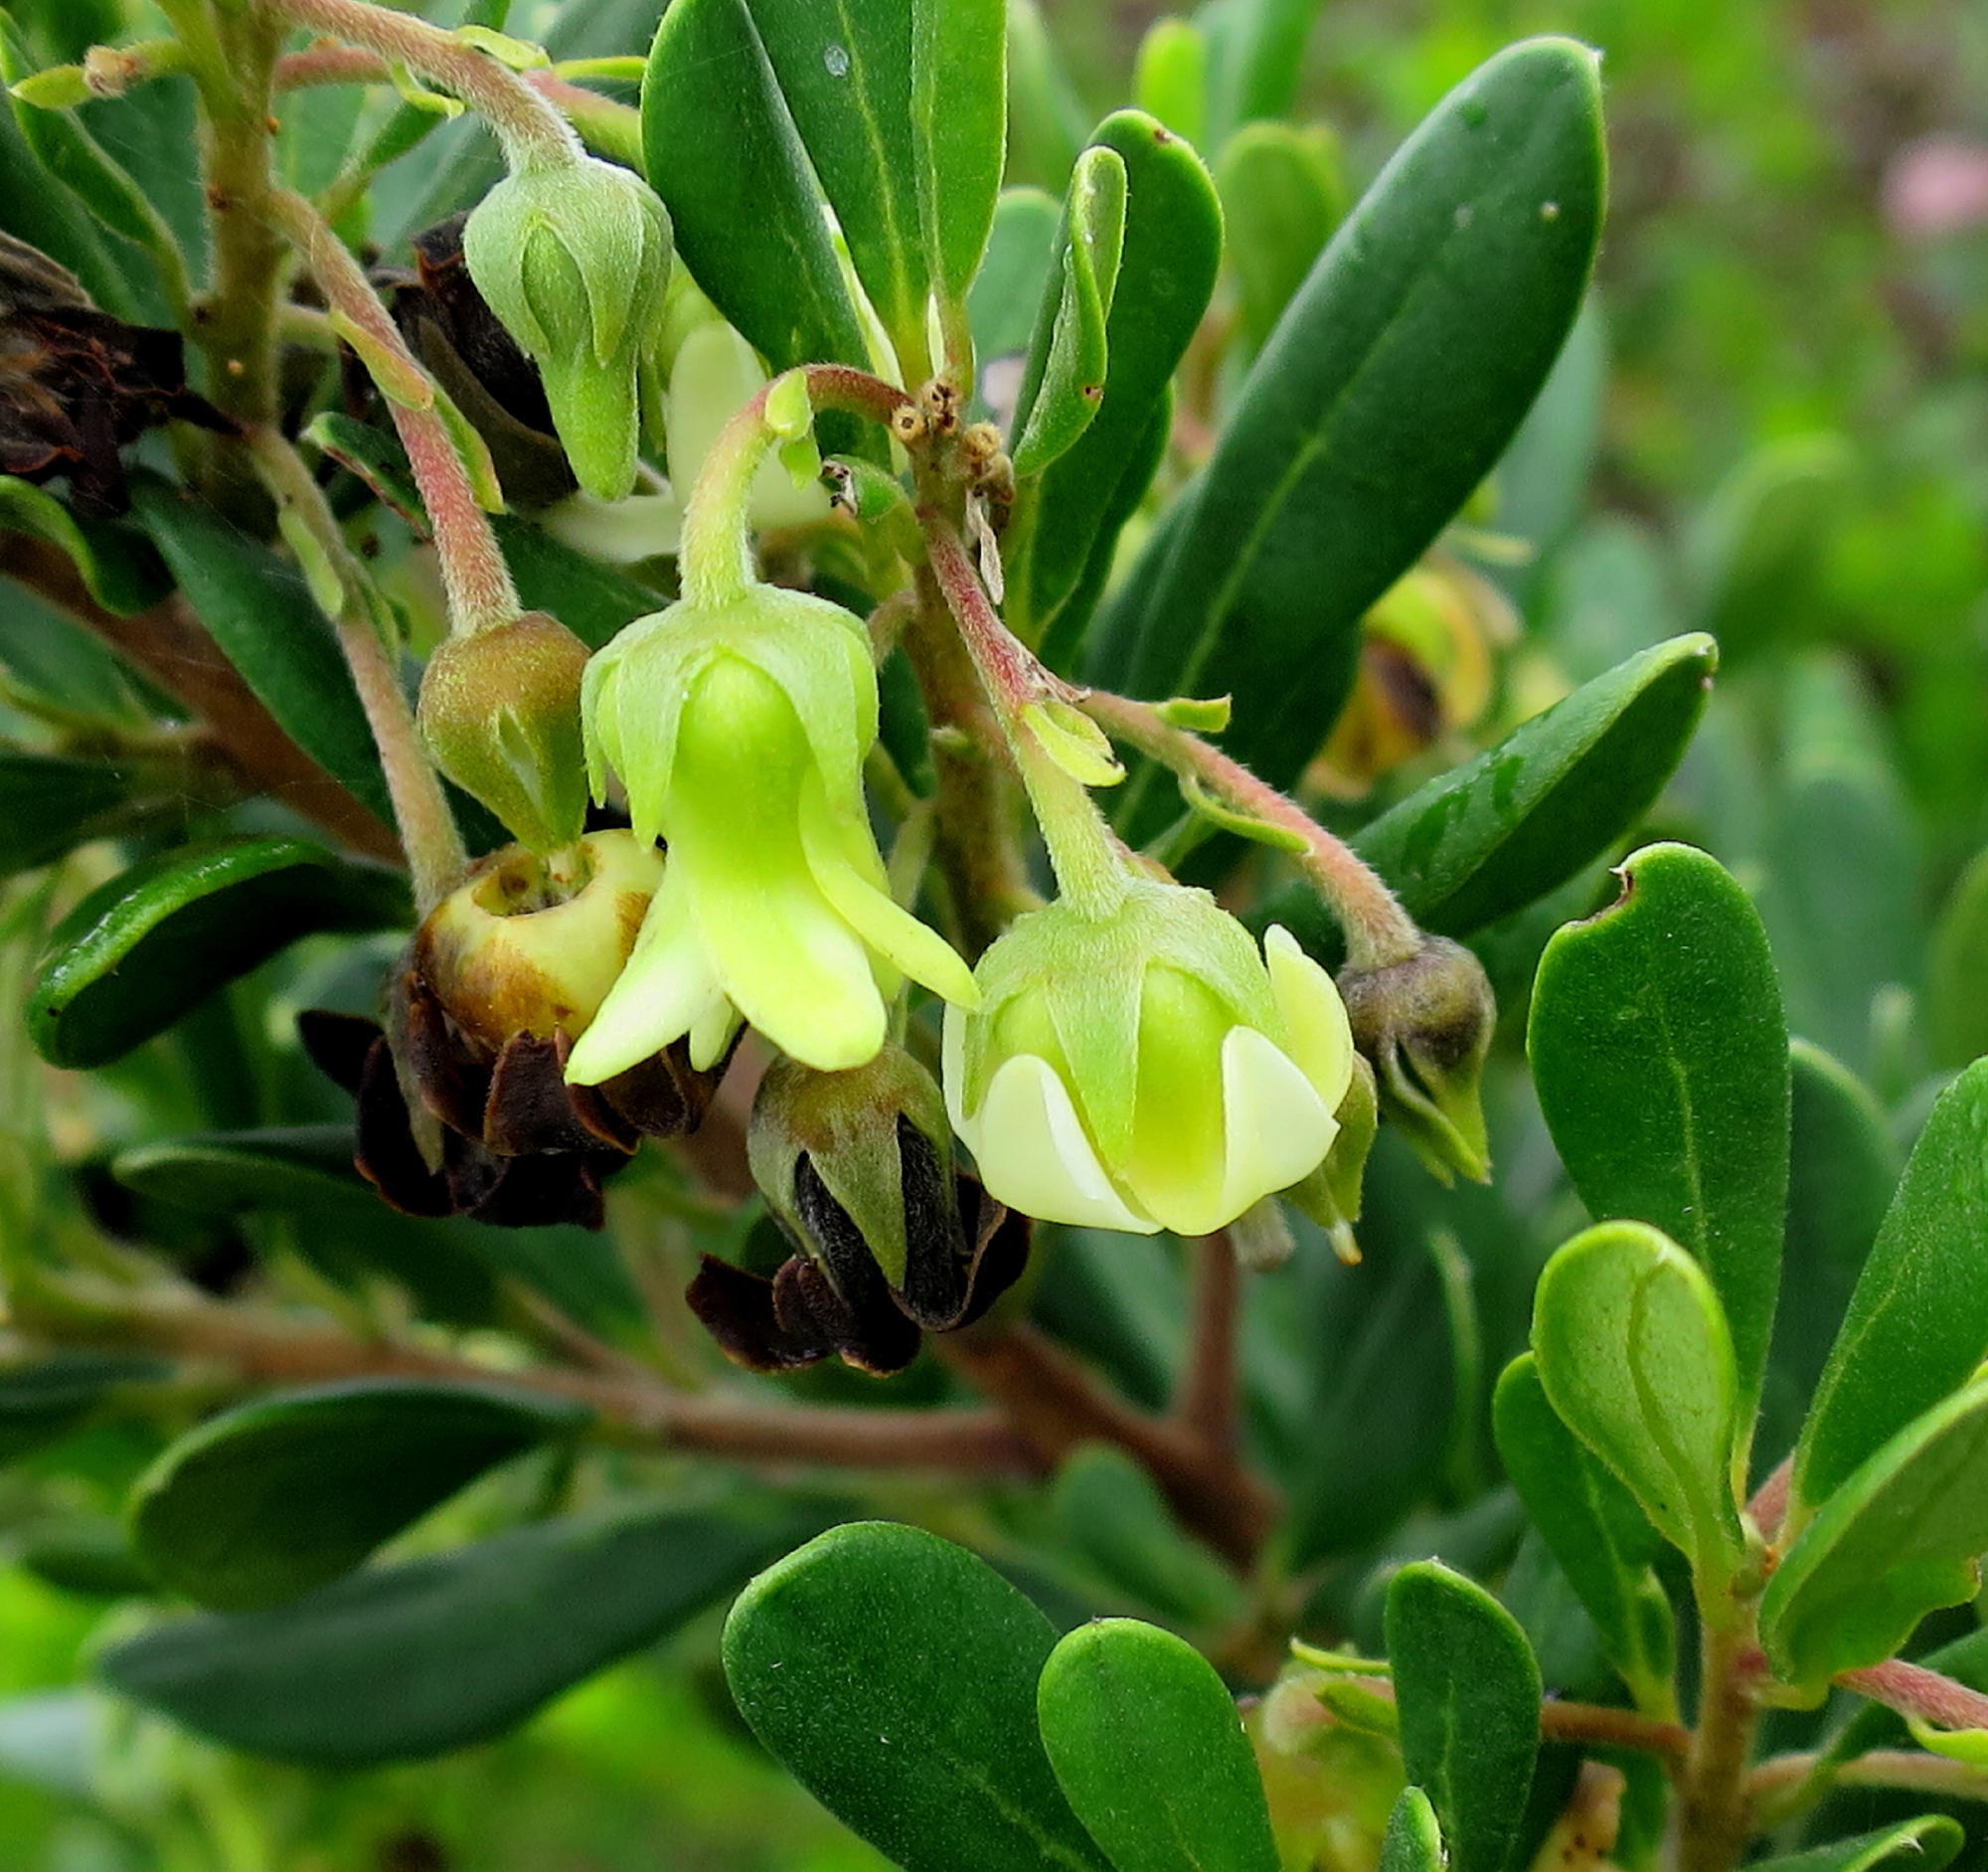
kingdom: Plantae
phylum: Tracheophyta
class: Magnoliopsida
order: Ericales
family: Ebenaceae
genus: Diospyros
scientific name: Diospyros dichrophylla
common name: Common star-apple
